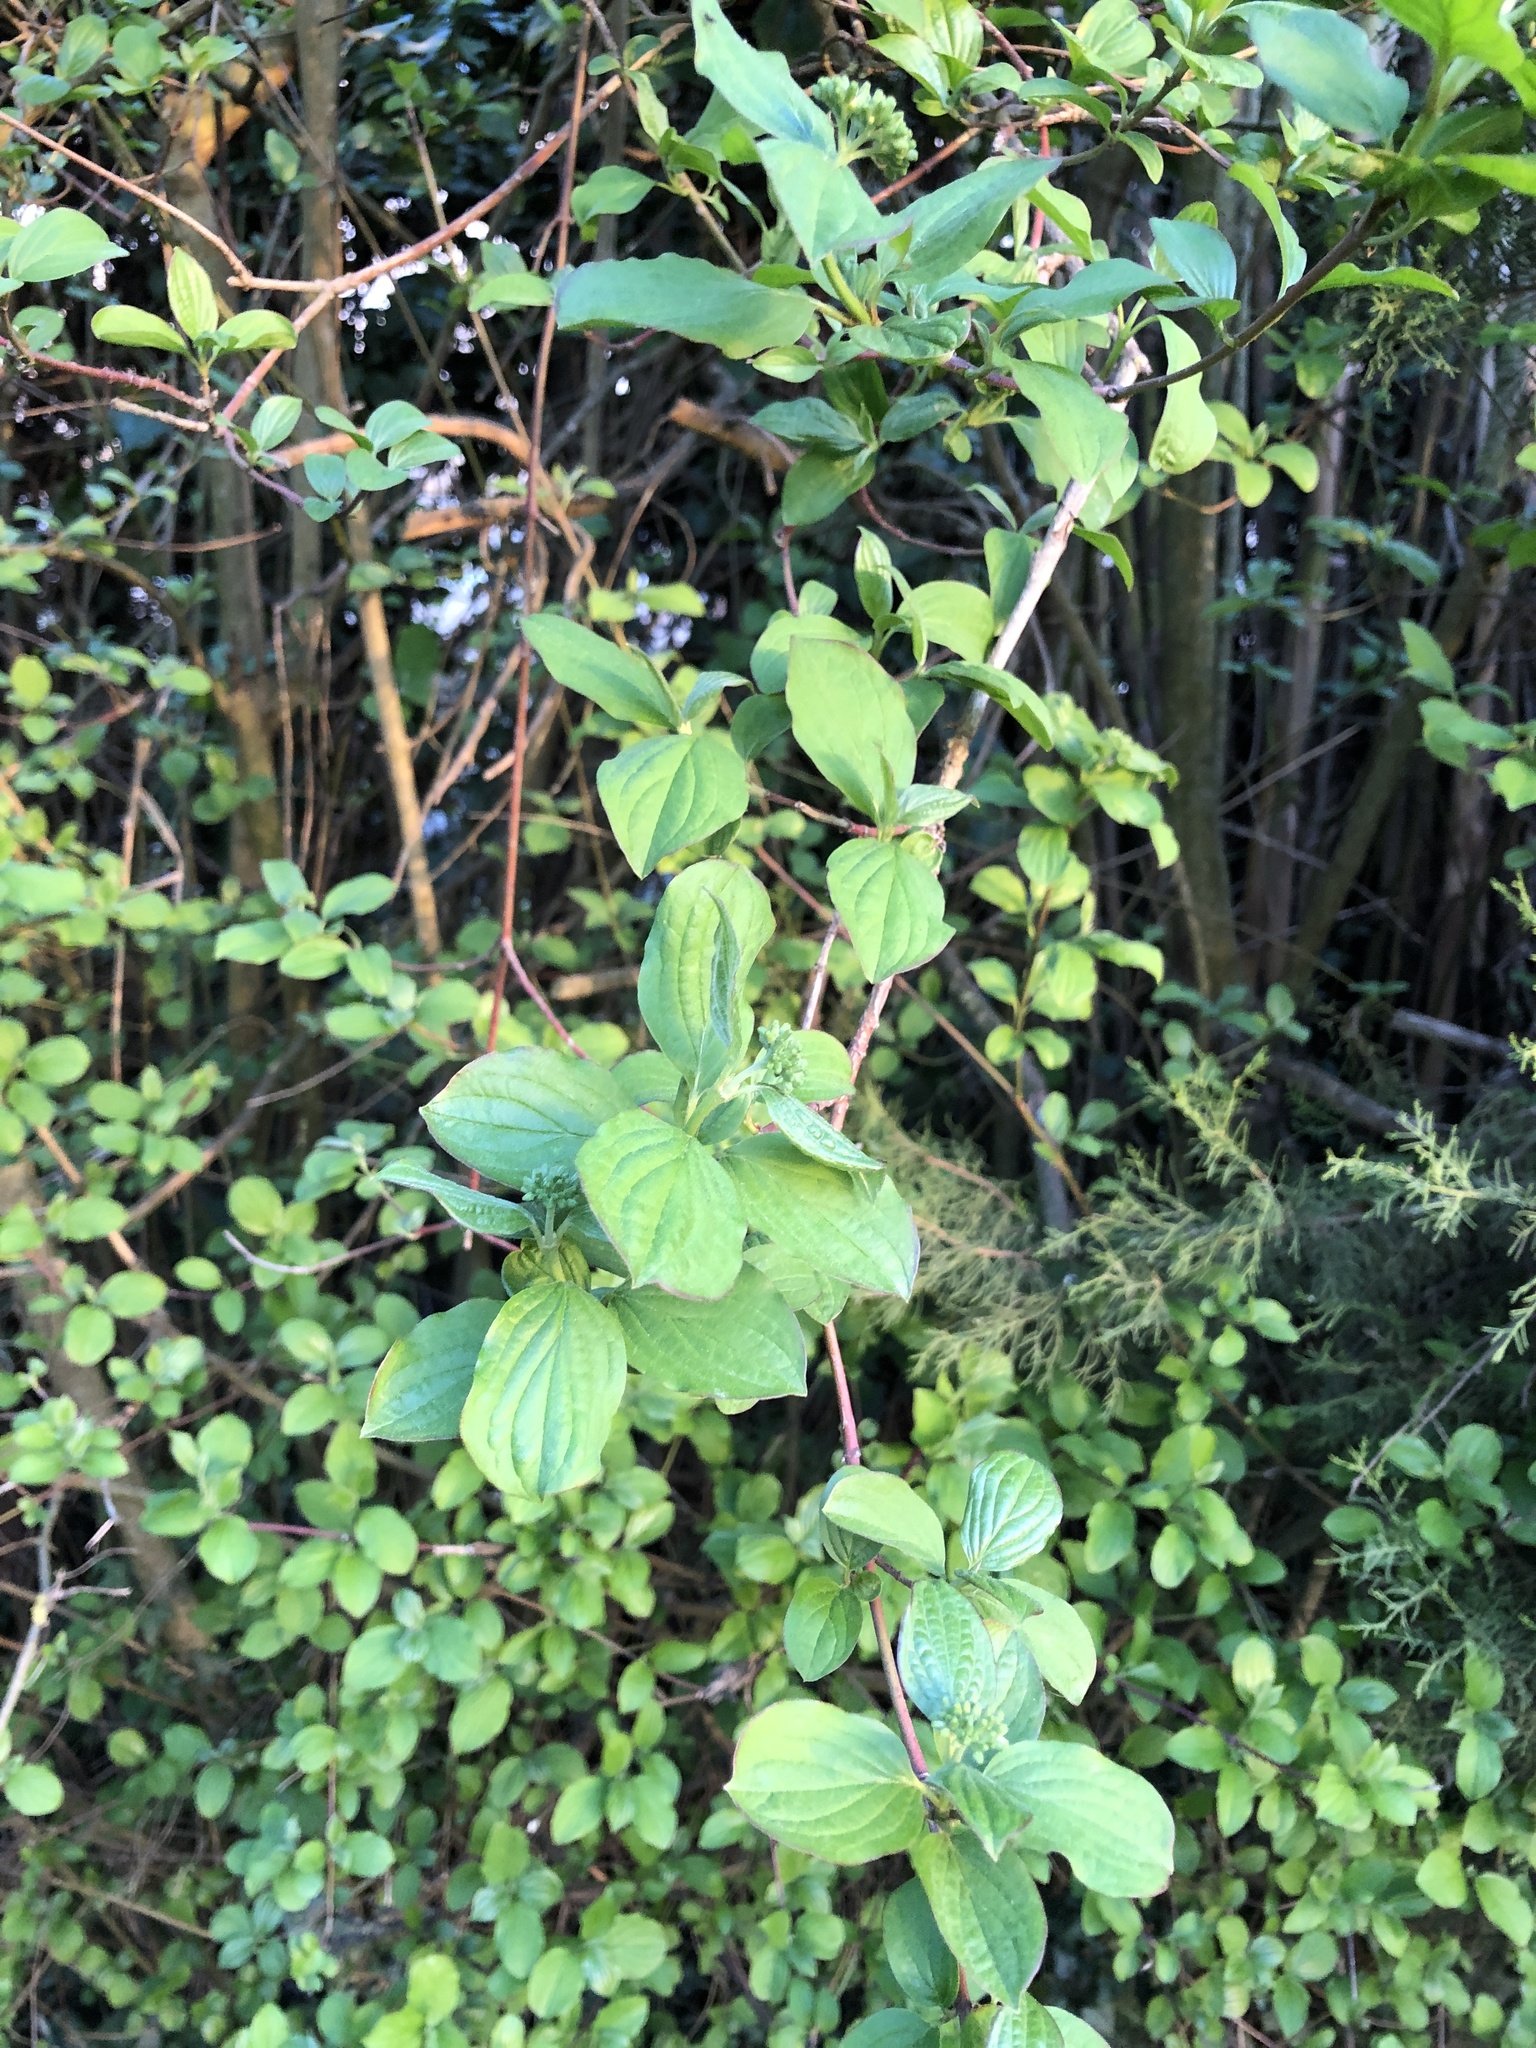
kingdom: Plantae
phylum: Tracheophyta
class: Magnoliopsida
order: Cornales
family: Cornaceae
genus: Cornus
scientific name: Cornus sanguinea
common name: Dogwood
